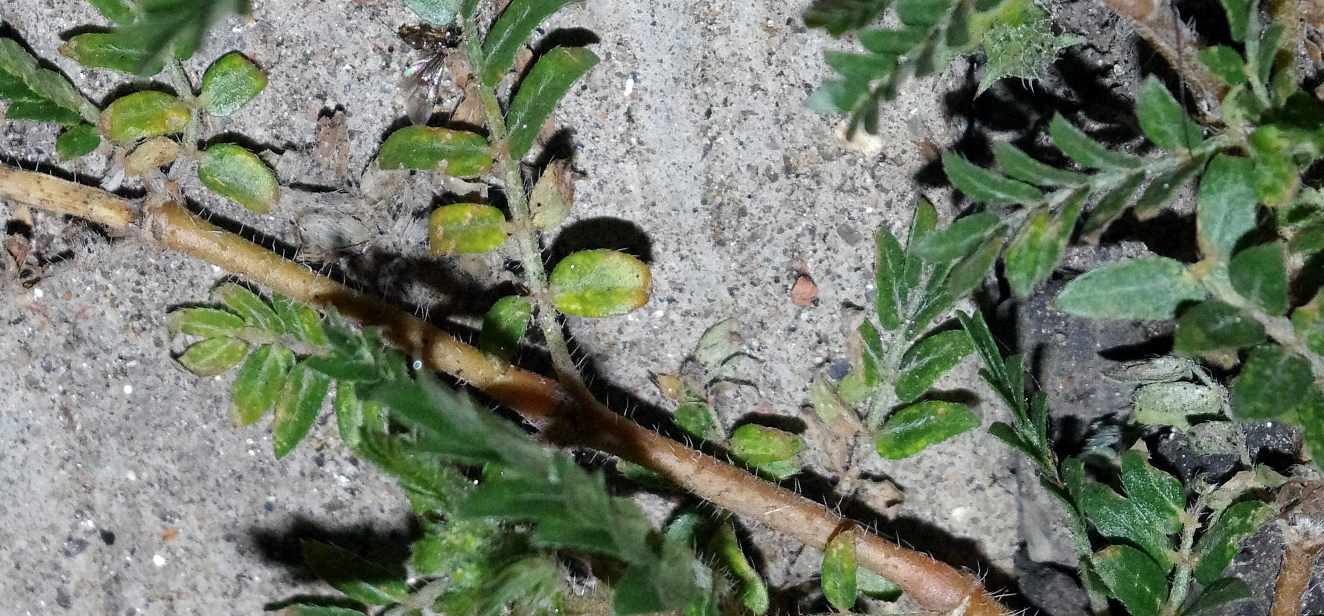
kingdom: Plantae
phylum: Tracheophyta
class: Magnoliopsida
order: Zygophyllales
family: Zygophyllaceae
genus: Tribulus
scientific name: Tribulus terrestris
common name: Puncturevine
